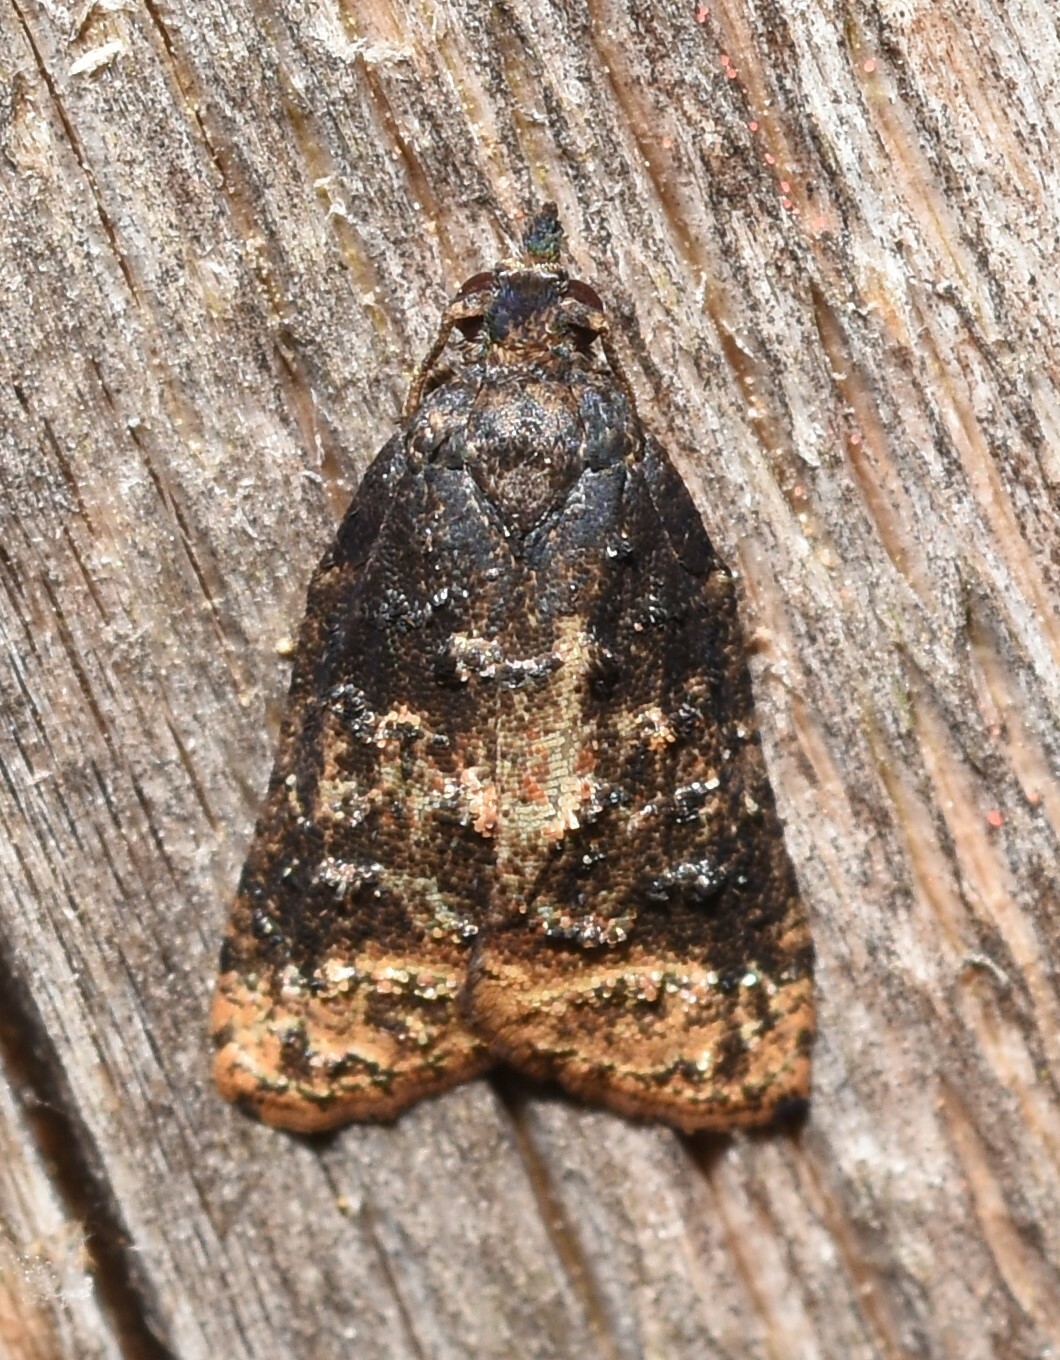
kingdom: Animalia
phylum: Arthropoda
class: Insecta
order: Lepidoptera
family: Tortricidae
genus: Platynota
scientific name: Platynota semiustana
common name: Singed platynota
